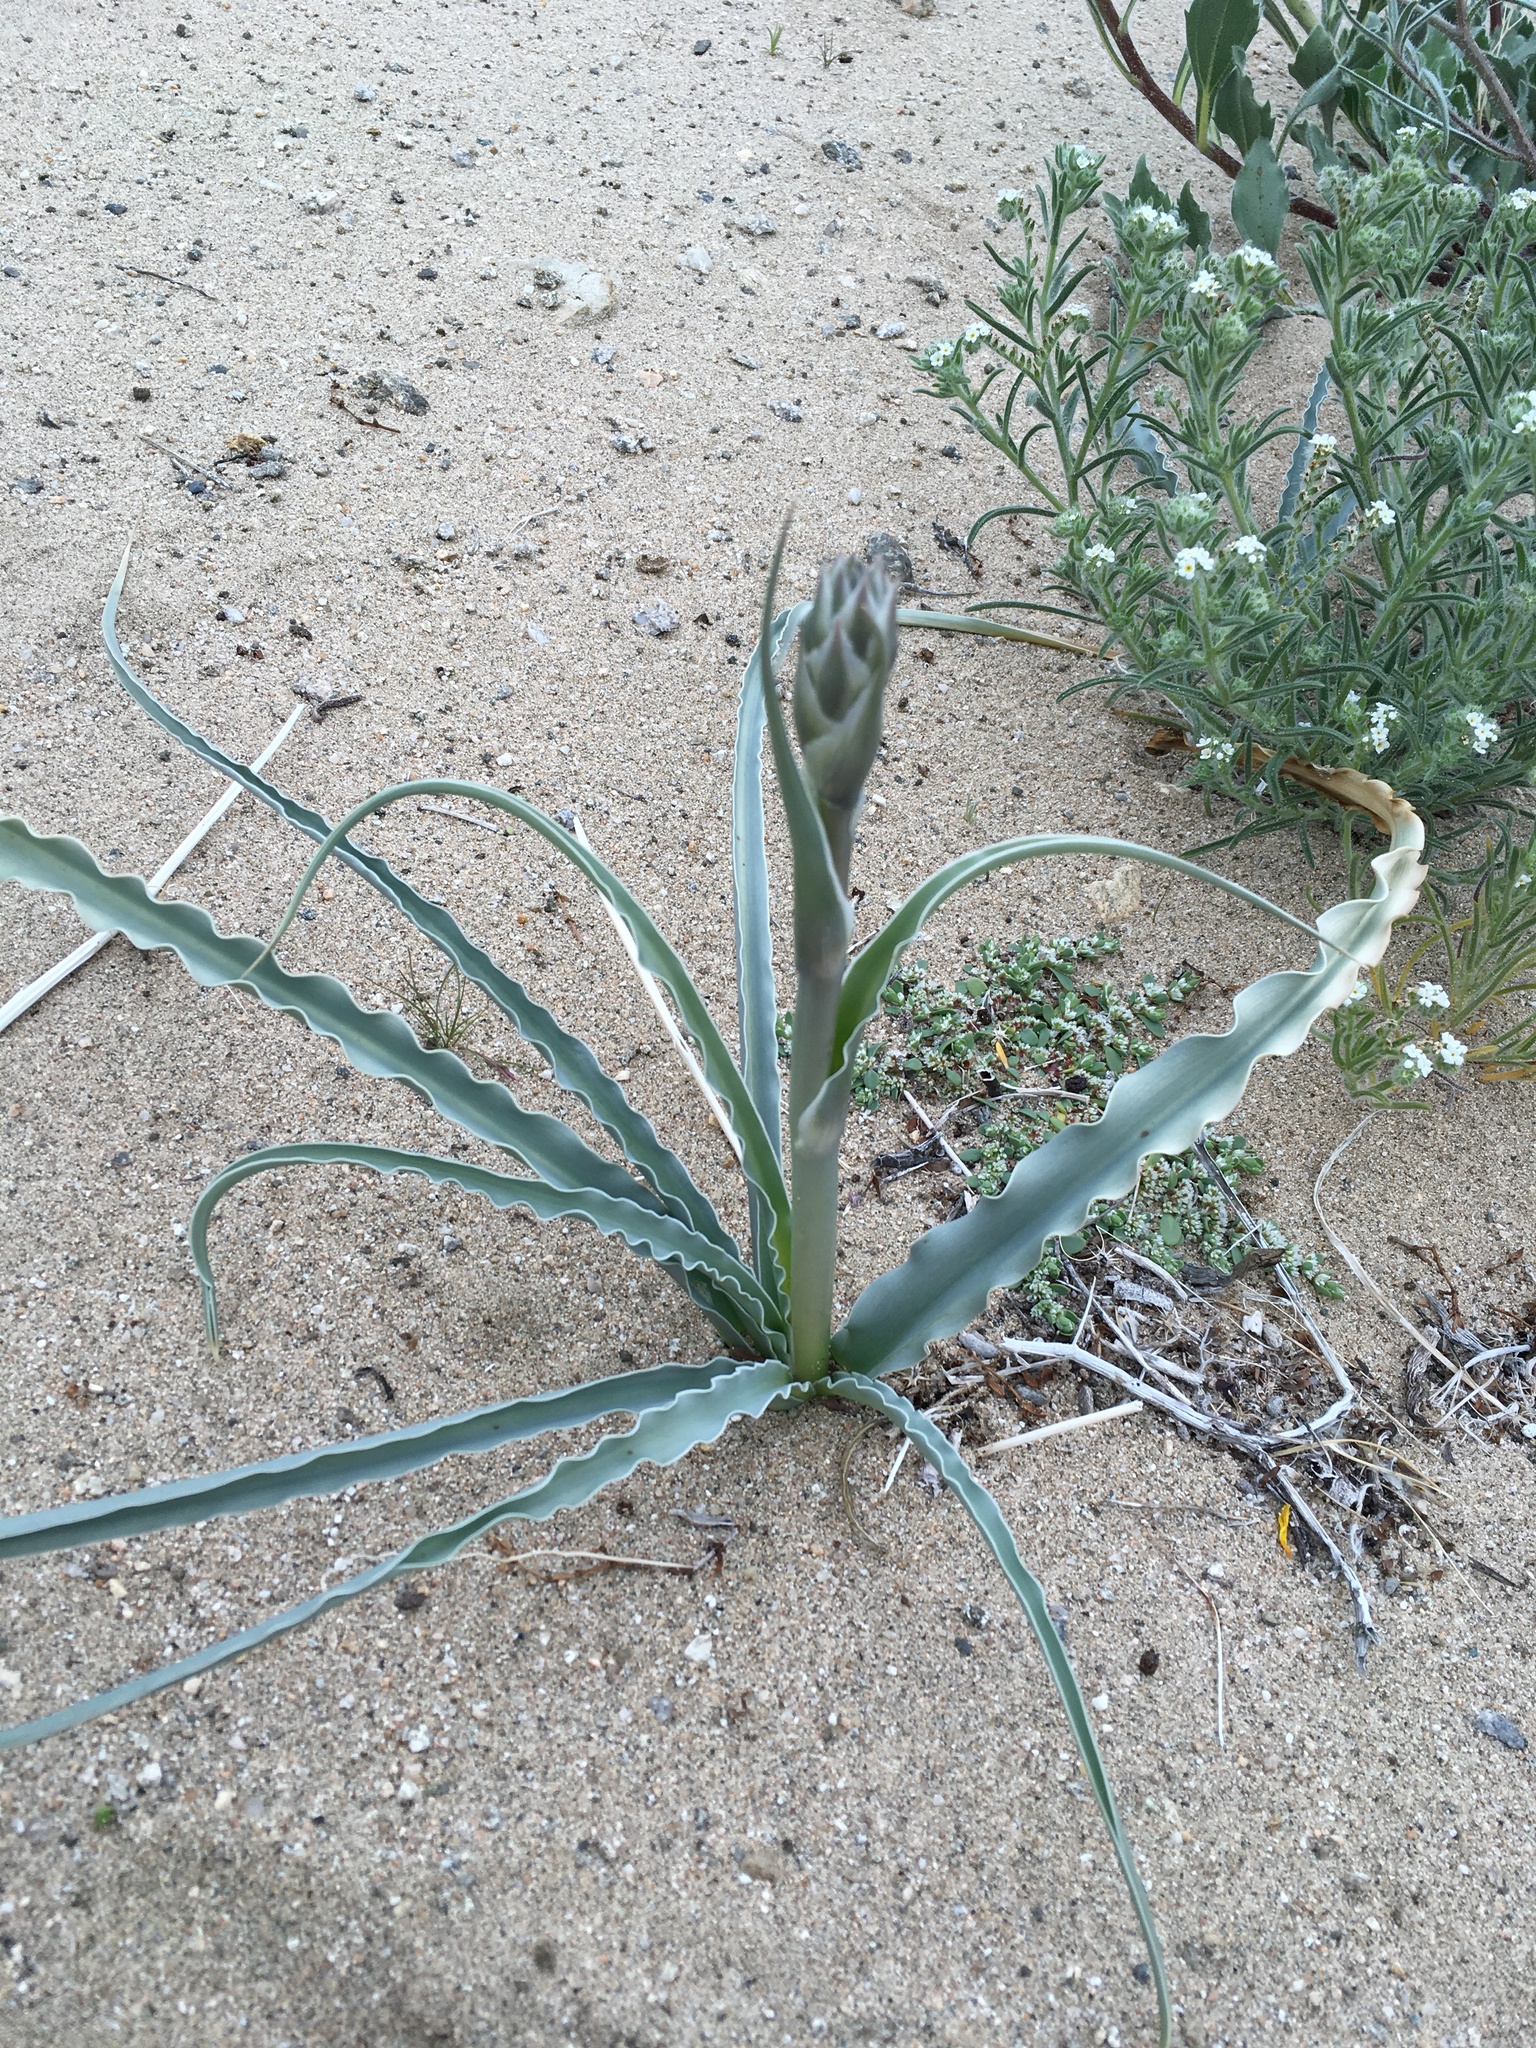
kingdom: Plantae
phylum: Tracheophyta
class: Liliopsida
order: Asparagales
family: Asparagaceae
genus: Hesperocallis
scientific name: Hesperocallis undulata
